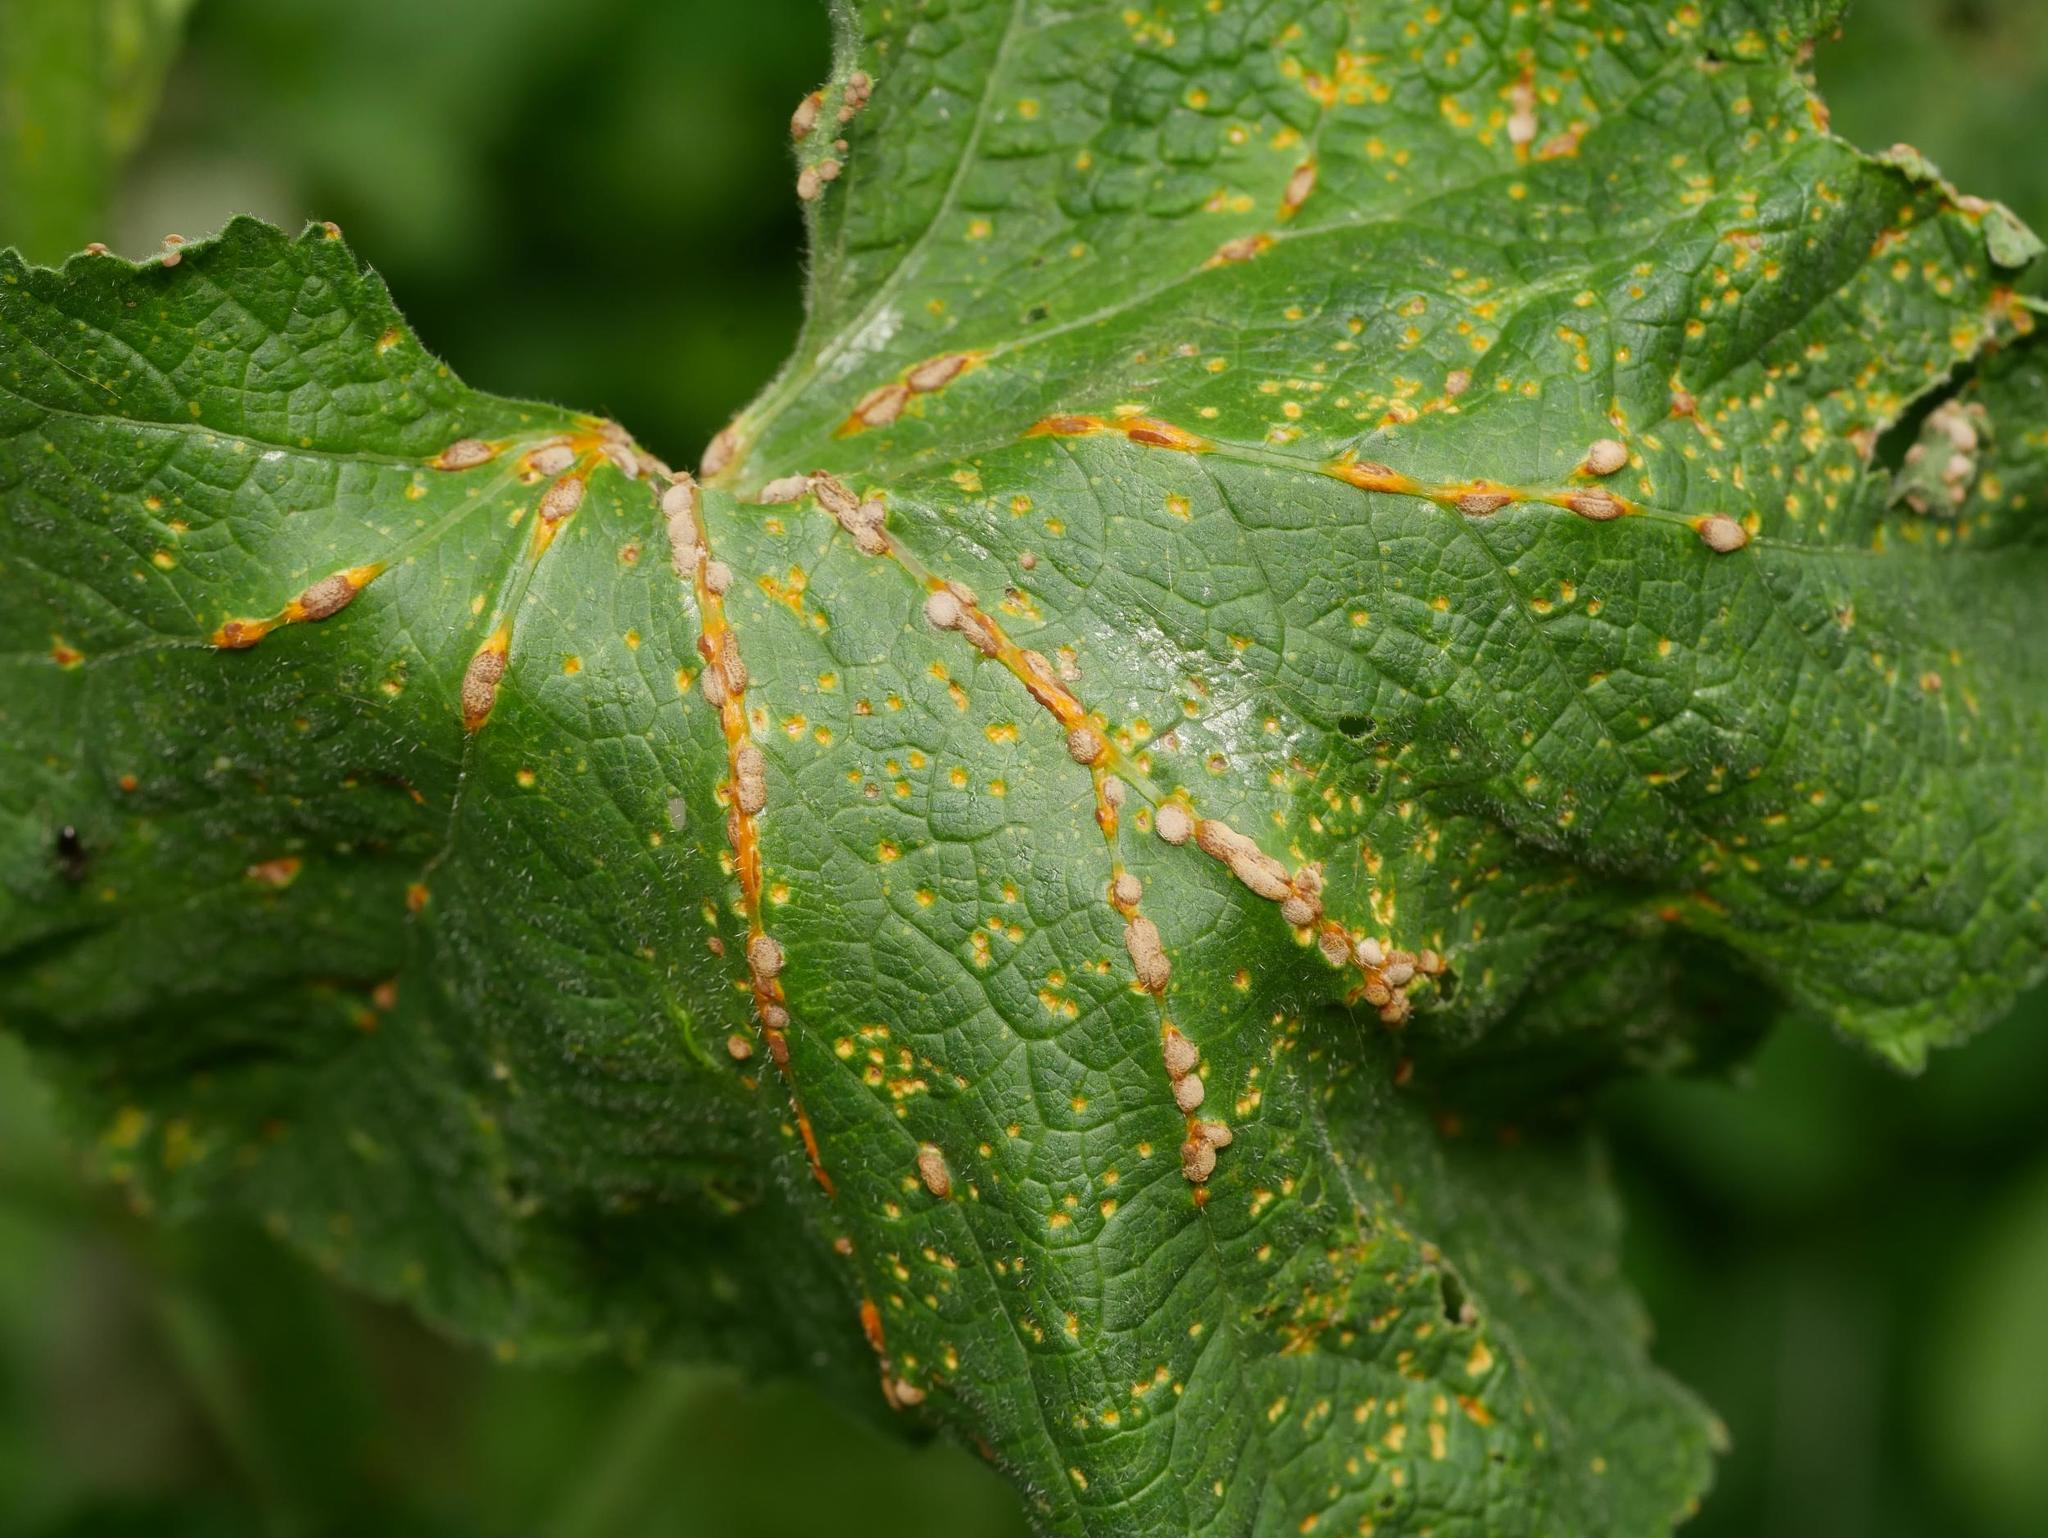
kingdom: Fungi
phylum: Basidiomycota
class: Pucciniomycetes
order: Pucciniales
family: Pucciniaceae
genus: Puccinia
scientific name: Puccinia malvacearum
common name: Hollyhock rust
